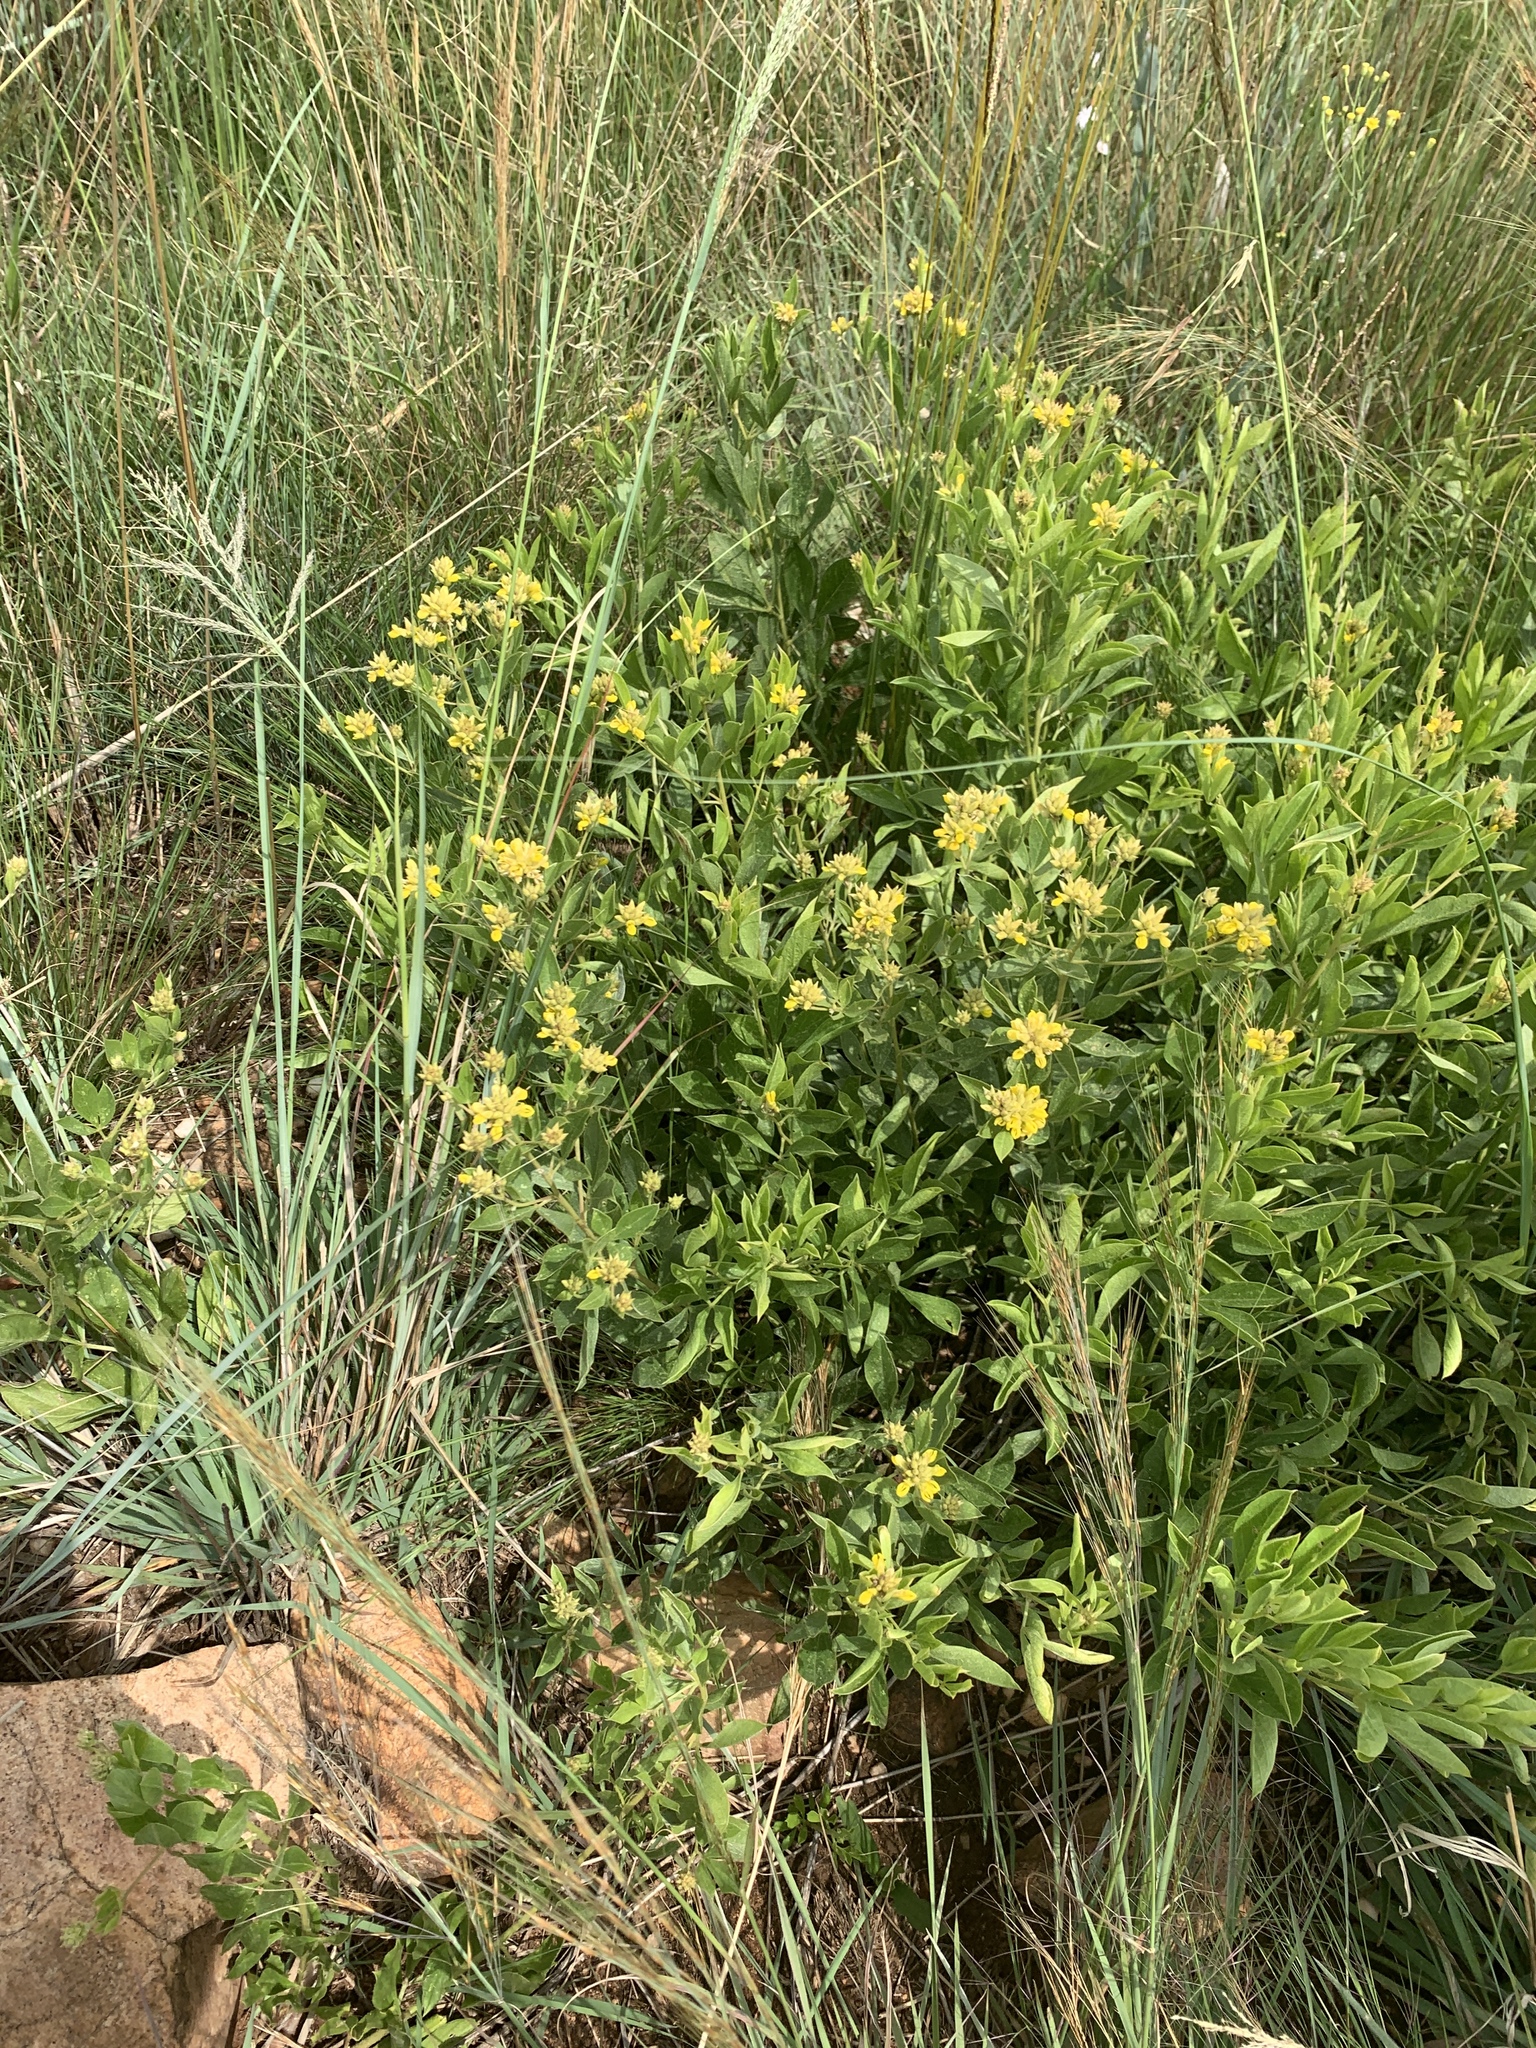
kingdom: Plantae
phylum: Tracheophyta
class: Magnoliopsida
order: Fabales
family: Fabaceae
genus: Pearsonia
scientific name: Pearsonia cajanifolia
